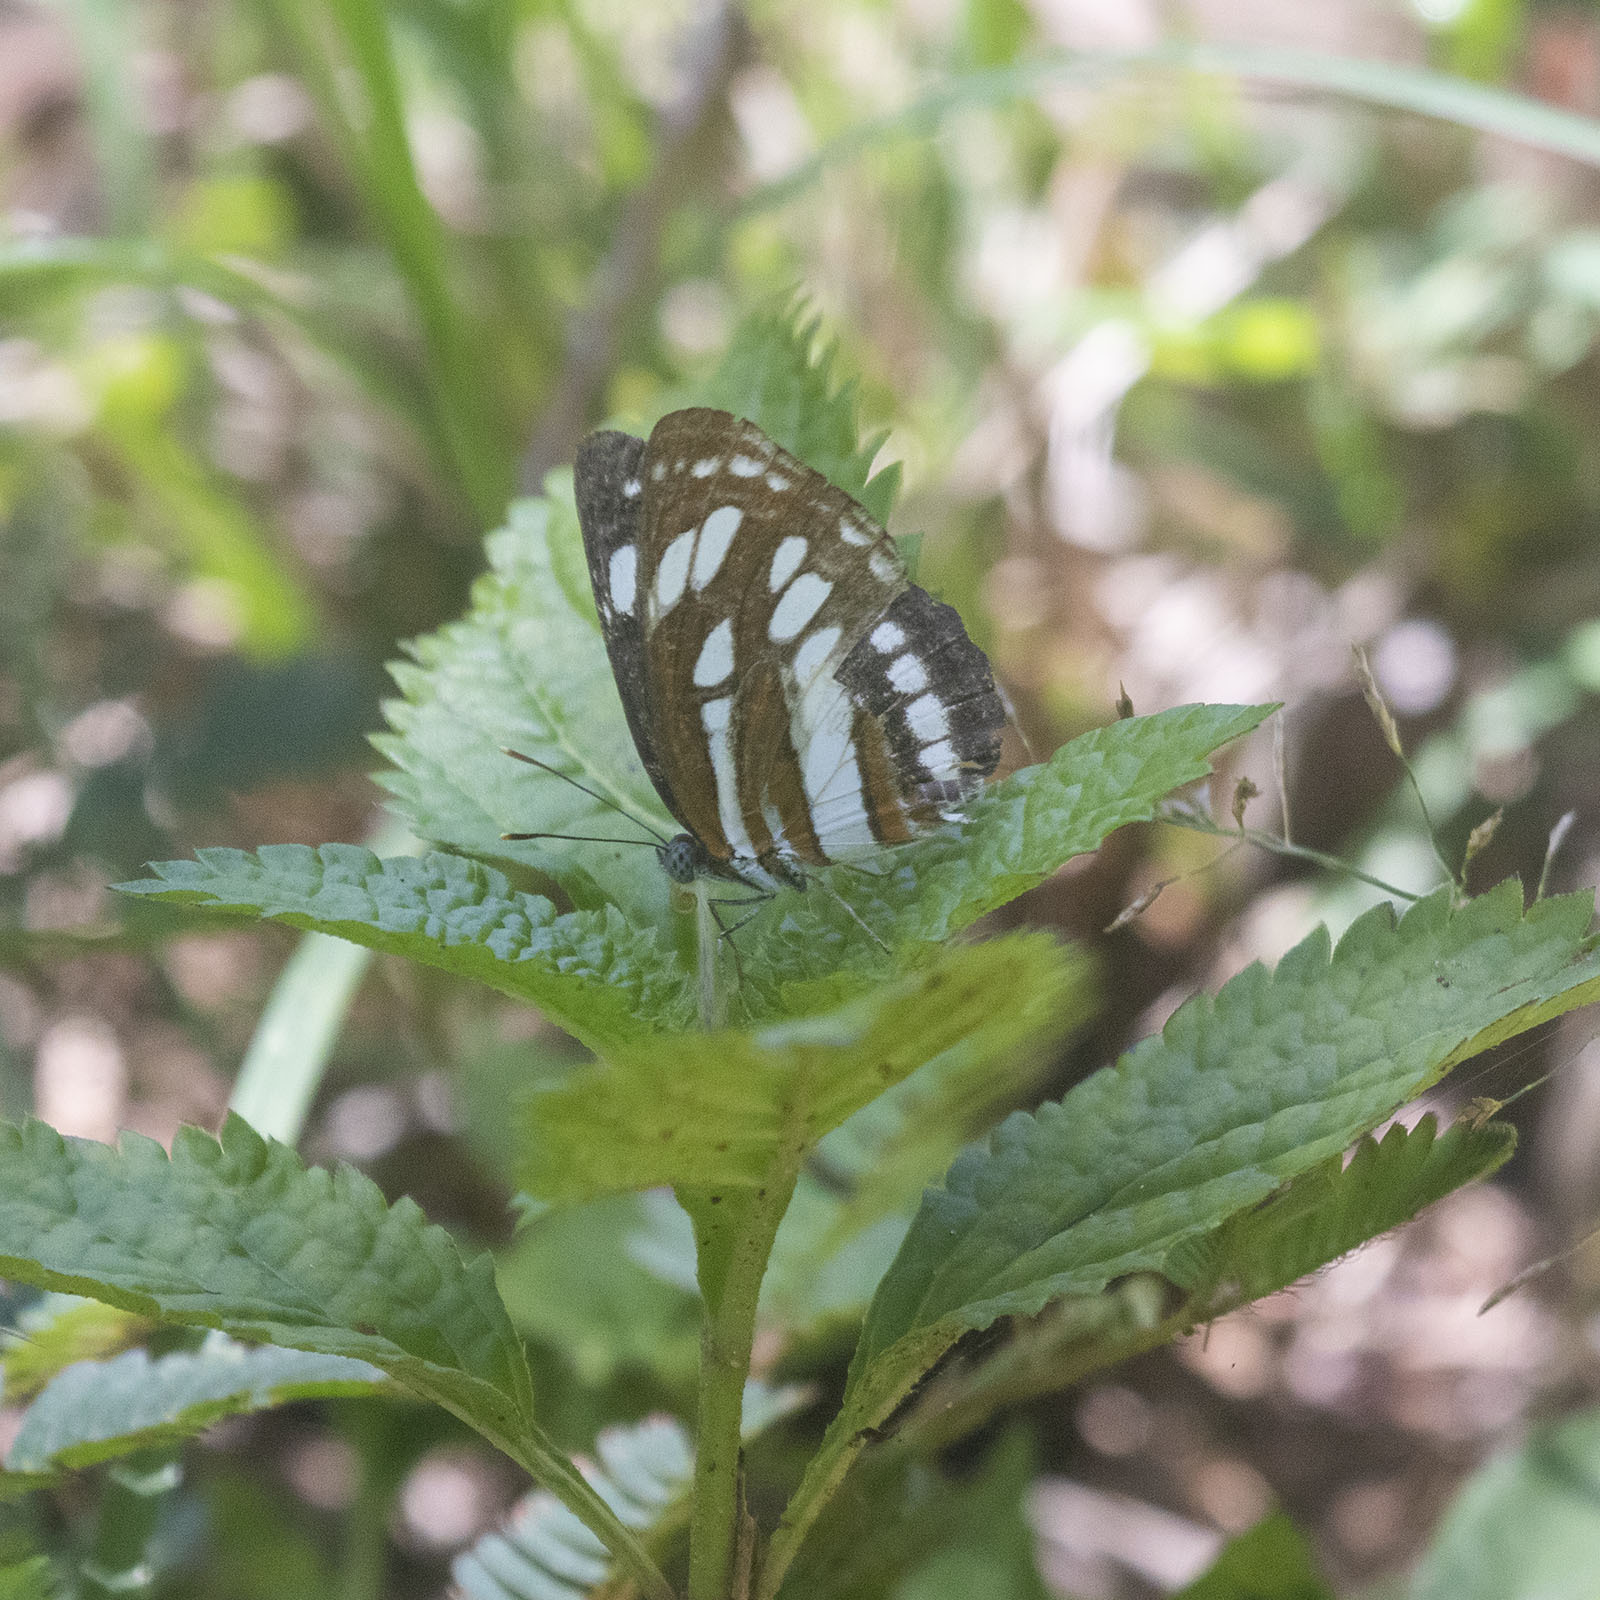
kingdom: Animalia
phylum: Arthropoda
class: Insecta
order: Lepidoptera
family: Nymphalidae
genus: Neptis
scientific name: Neptis hylas
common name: Common sailer
